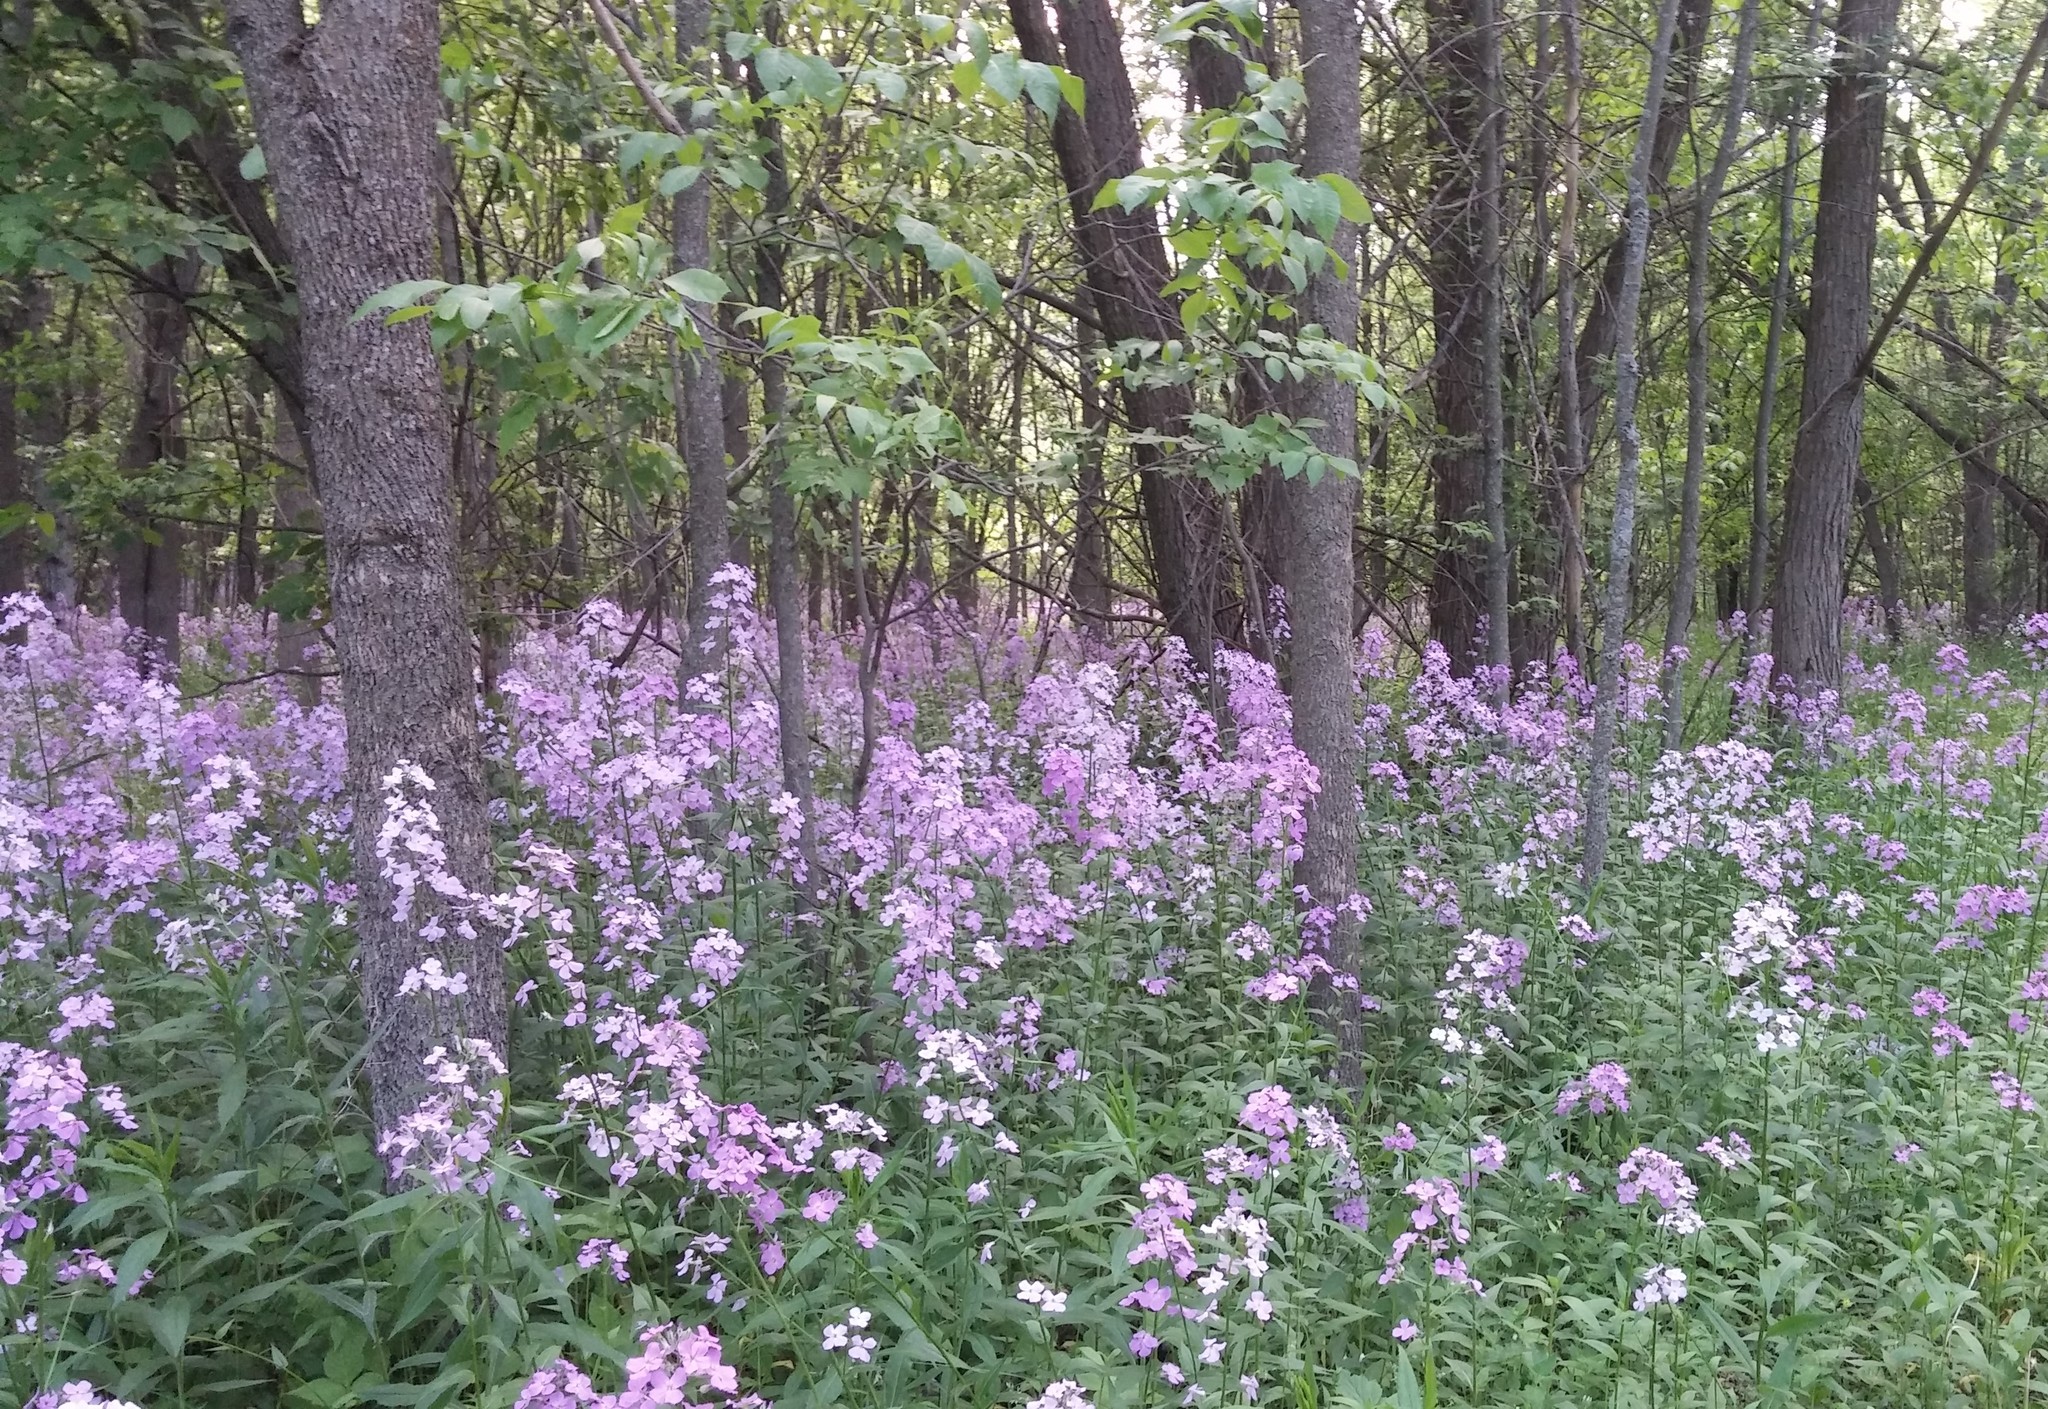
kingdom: Plantae
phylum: Tracheophyta
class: Magnoliopsida
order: Brassicales
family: Brassicaceae
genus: Hesperis
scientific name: Hesperis matronalis
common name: Dame's-violet
